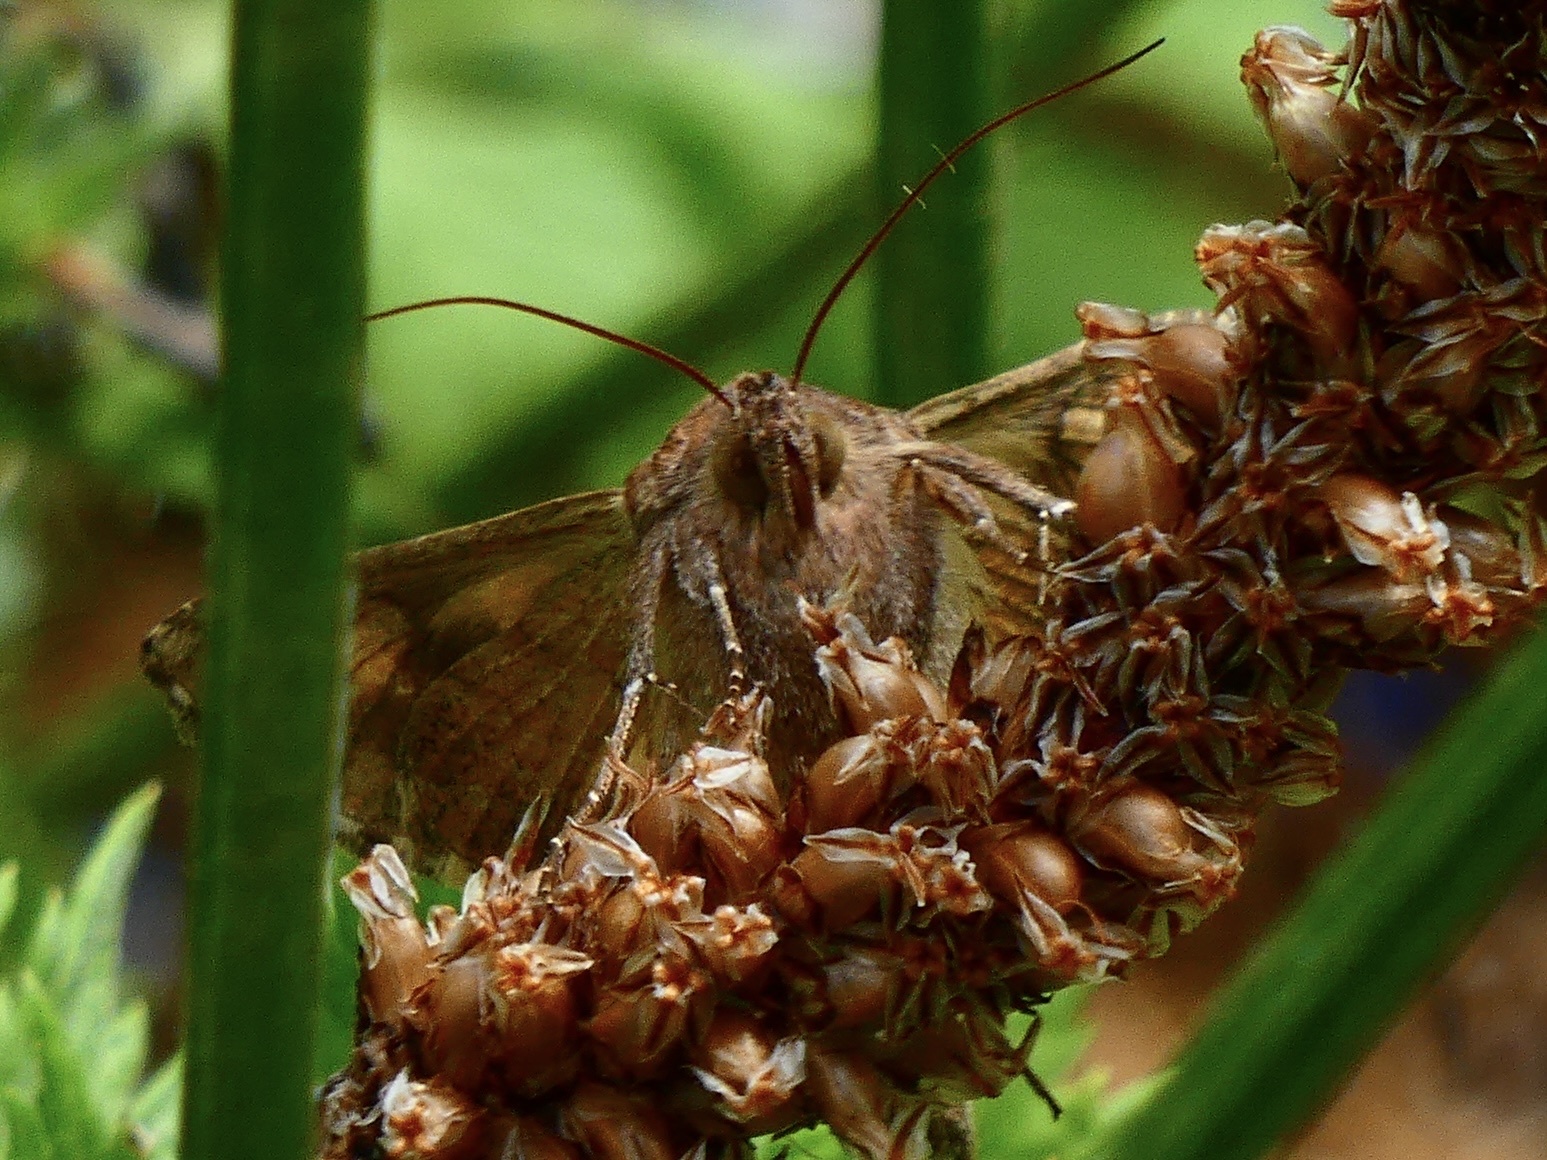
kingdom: Animalia
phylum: Arthropoda
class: Insecta
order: Lepidoptera
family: Noctuidae
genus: Autographa
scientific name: Autographa gamma
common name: Silver y
